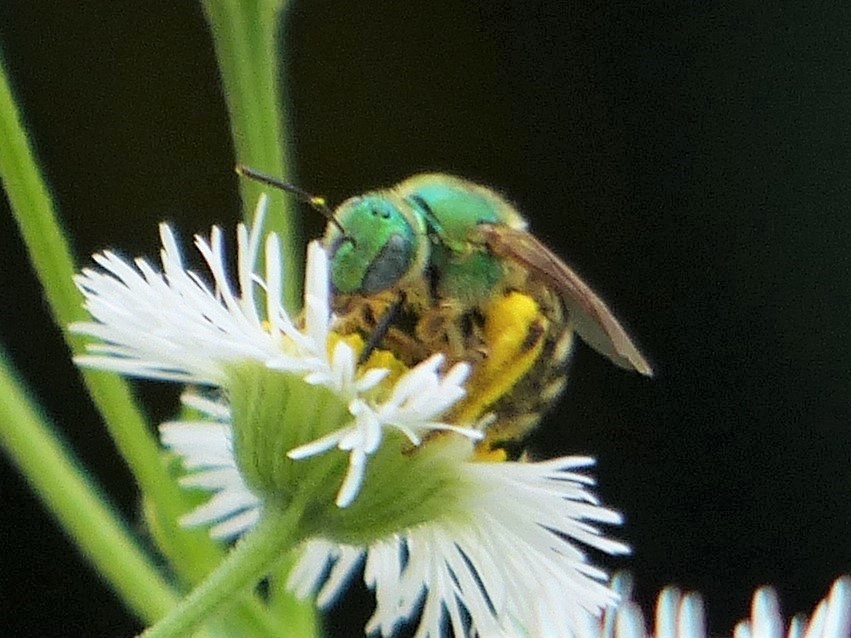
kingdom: Animalia
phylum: Arthropoda
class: Insecta
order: Hymenoptera
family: Halictidae
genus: Agapostemon
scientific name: Agapostemon virescens
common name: Bicolored striped sweat bee
